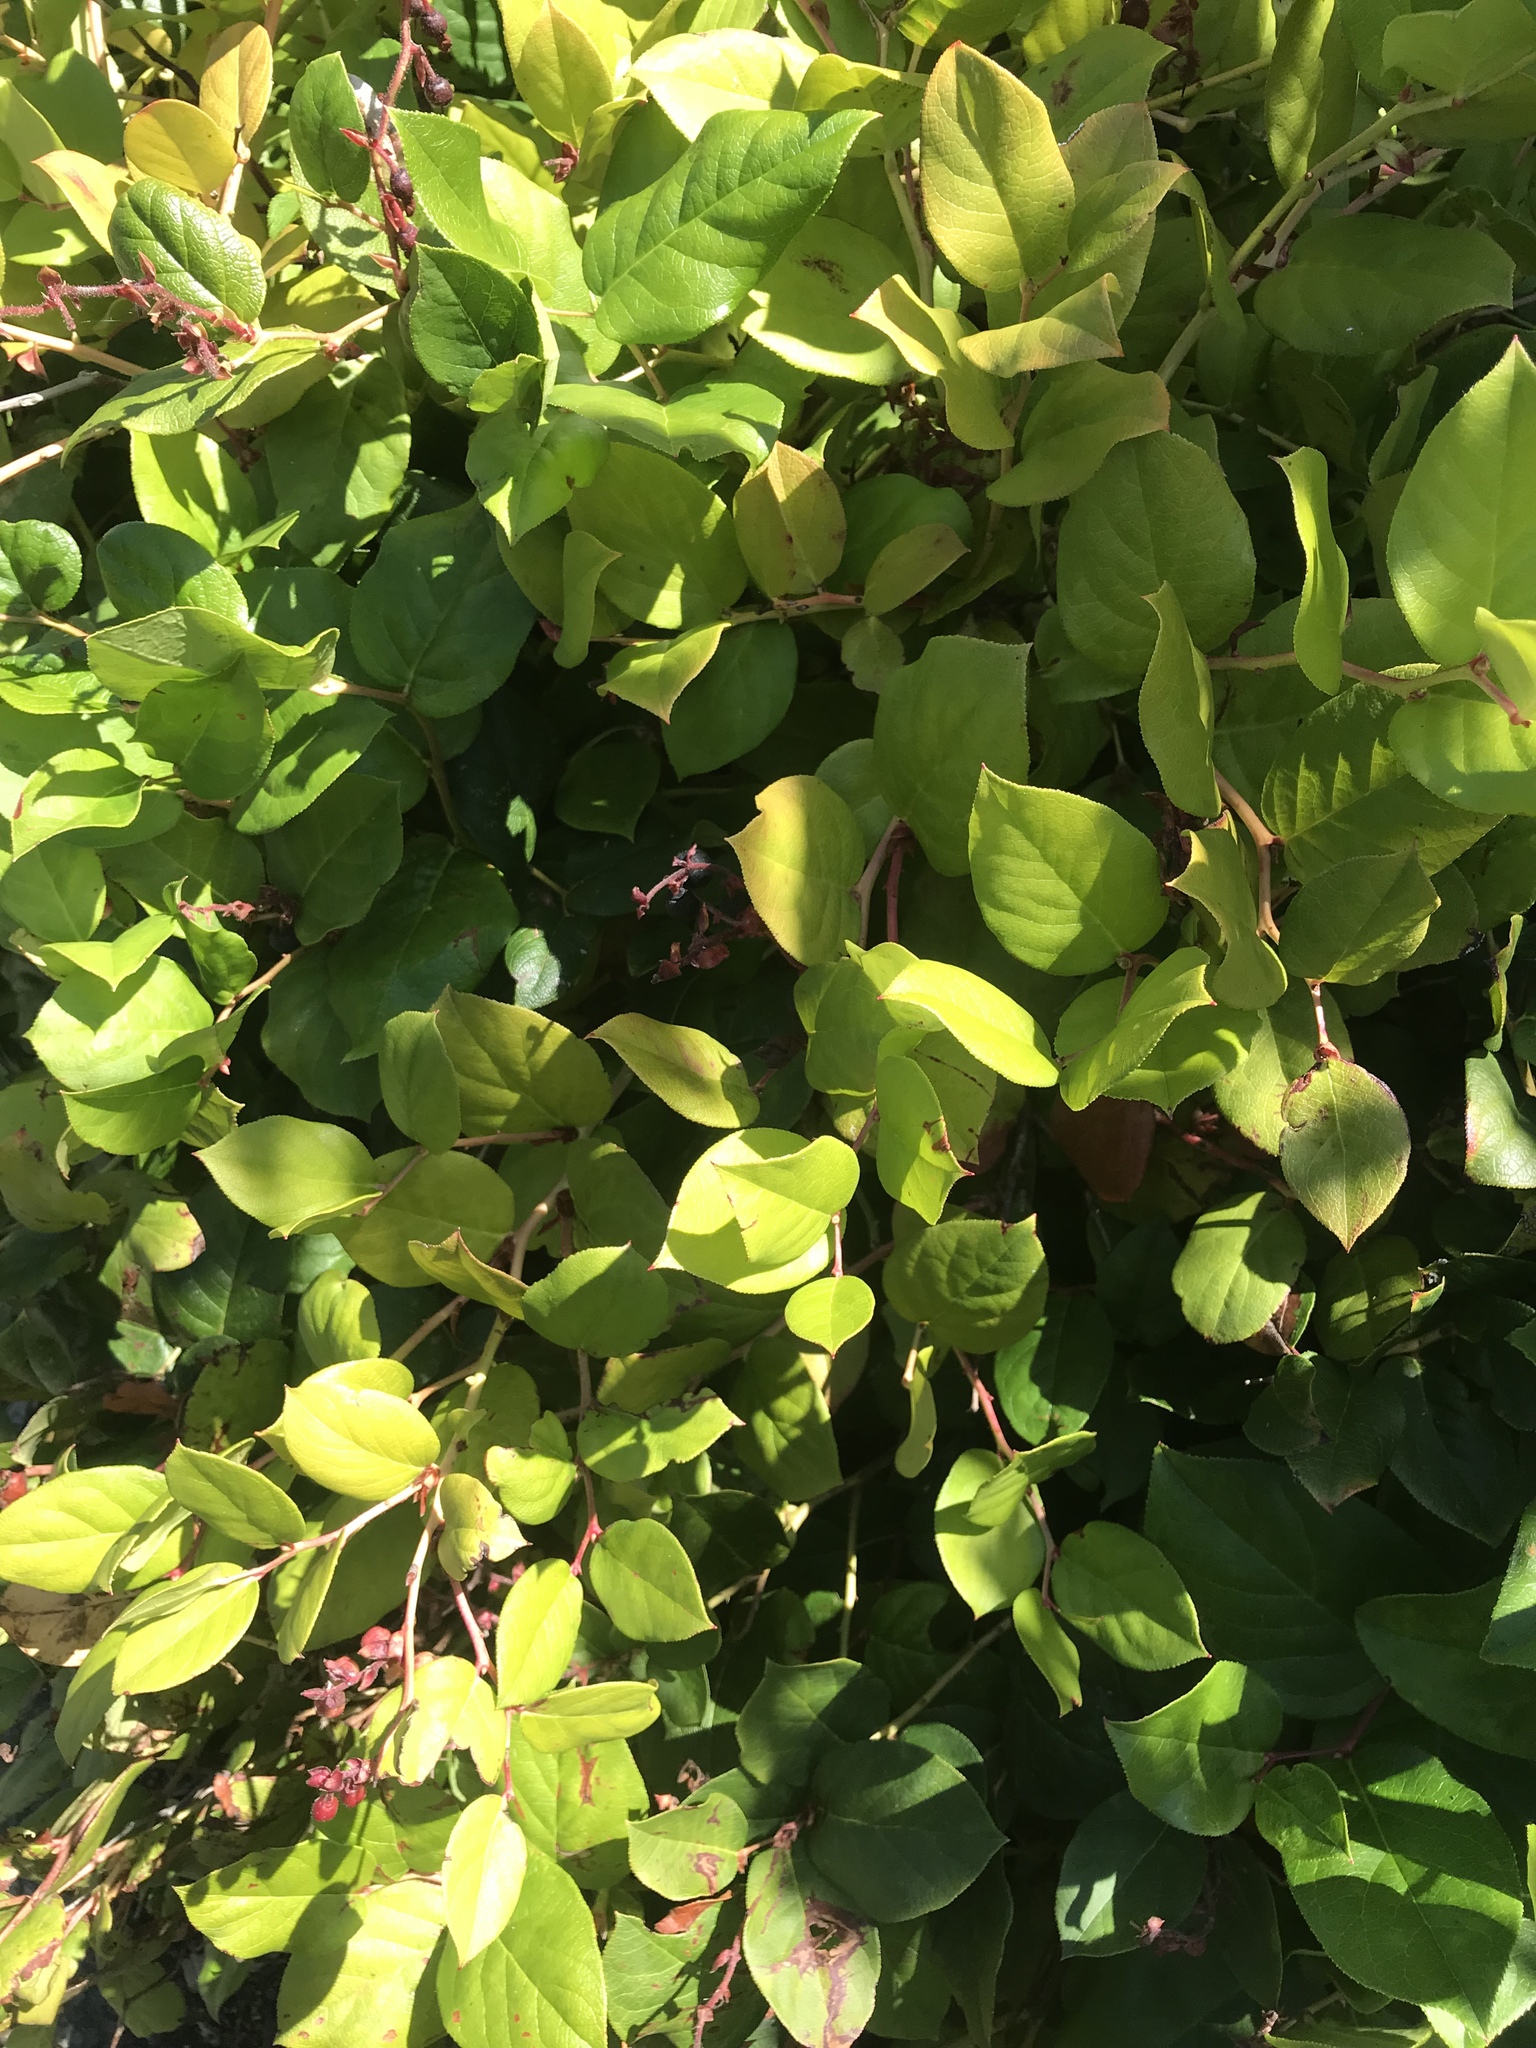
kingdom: Plantae
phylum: Tracheophyta
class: Magnoliopsida
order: Ericales
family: Ericaceae
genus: Gaultheria
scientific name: Gaultheria shallon
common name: Shallon
